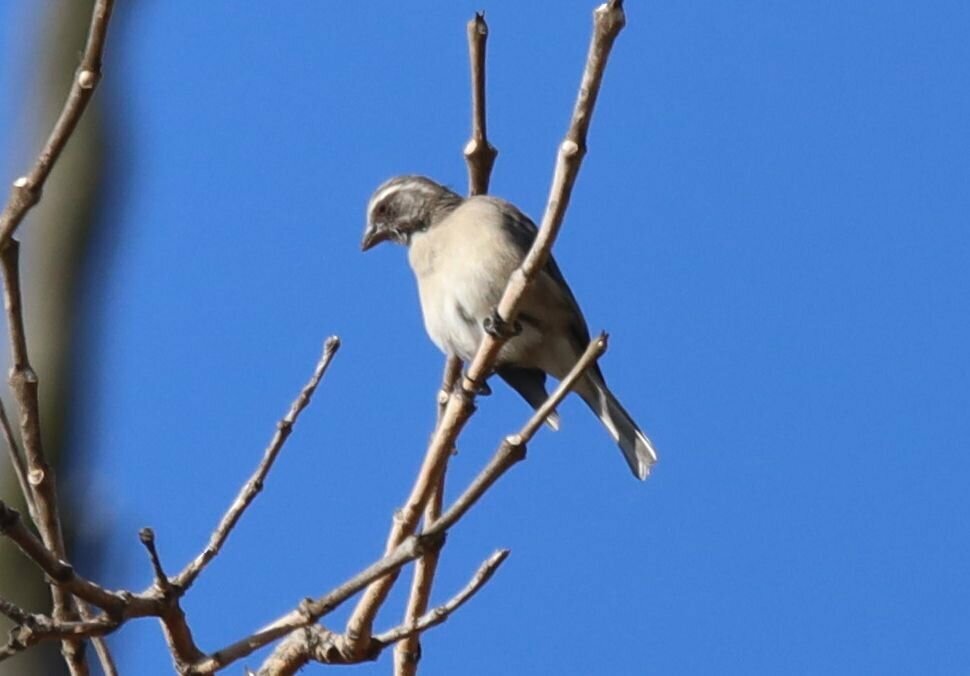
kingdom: Animalia
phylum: Chordata
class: Aves
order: Passeriformes
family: Fringillidae
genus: Crithagra
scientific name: Crithagra gularis
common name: Streaky-headed seedeater
